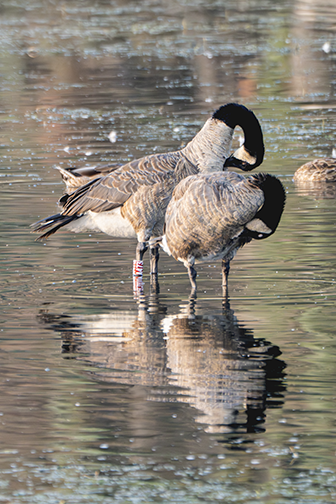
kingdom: Animalia
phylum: Chordata
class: Aves
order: Anseriformes
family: Anatidae
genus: Branta
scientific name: Branta canadensis
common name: Canada goose
